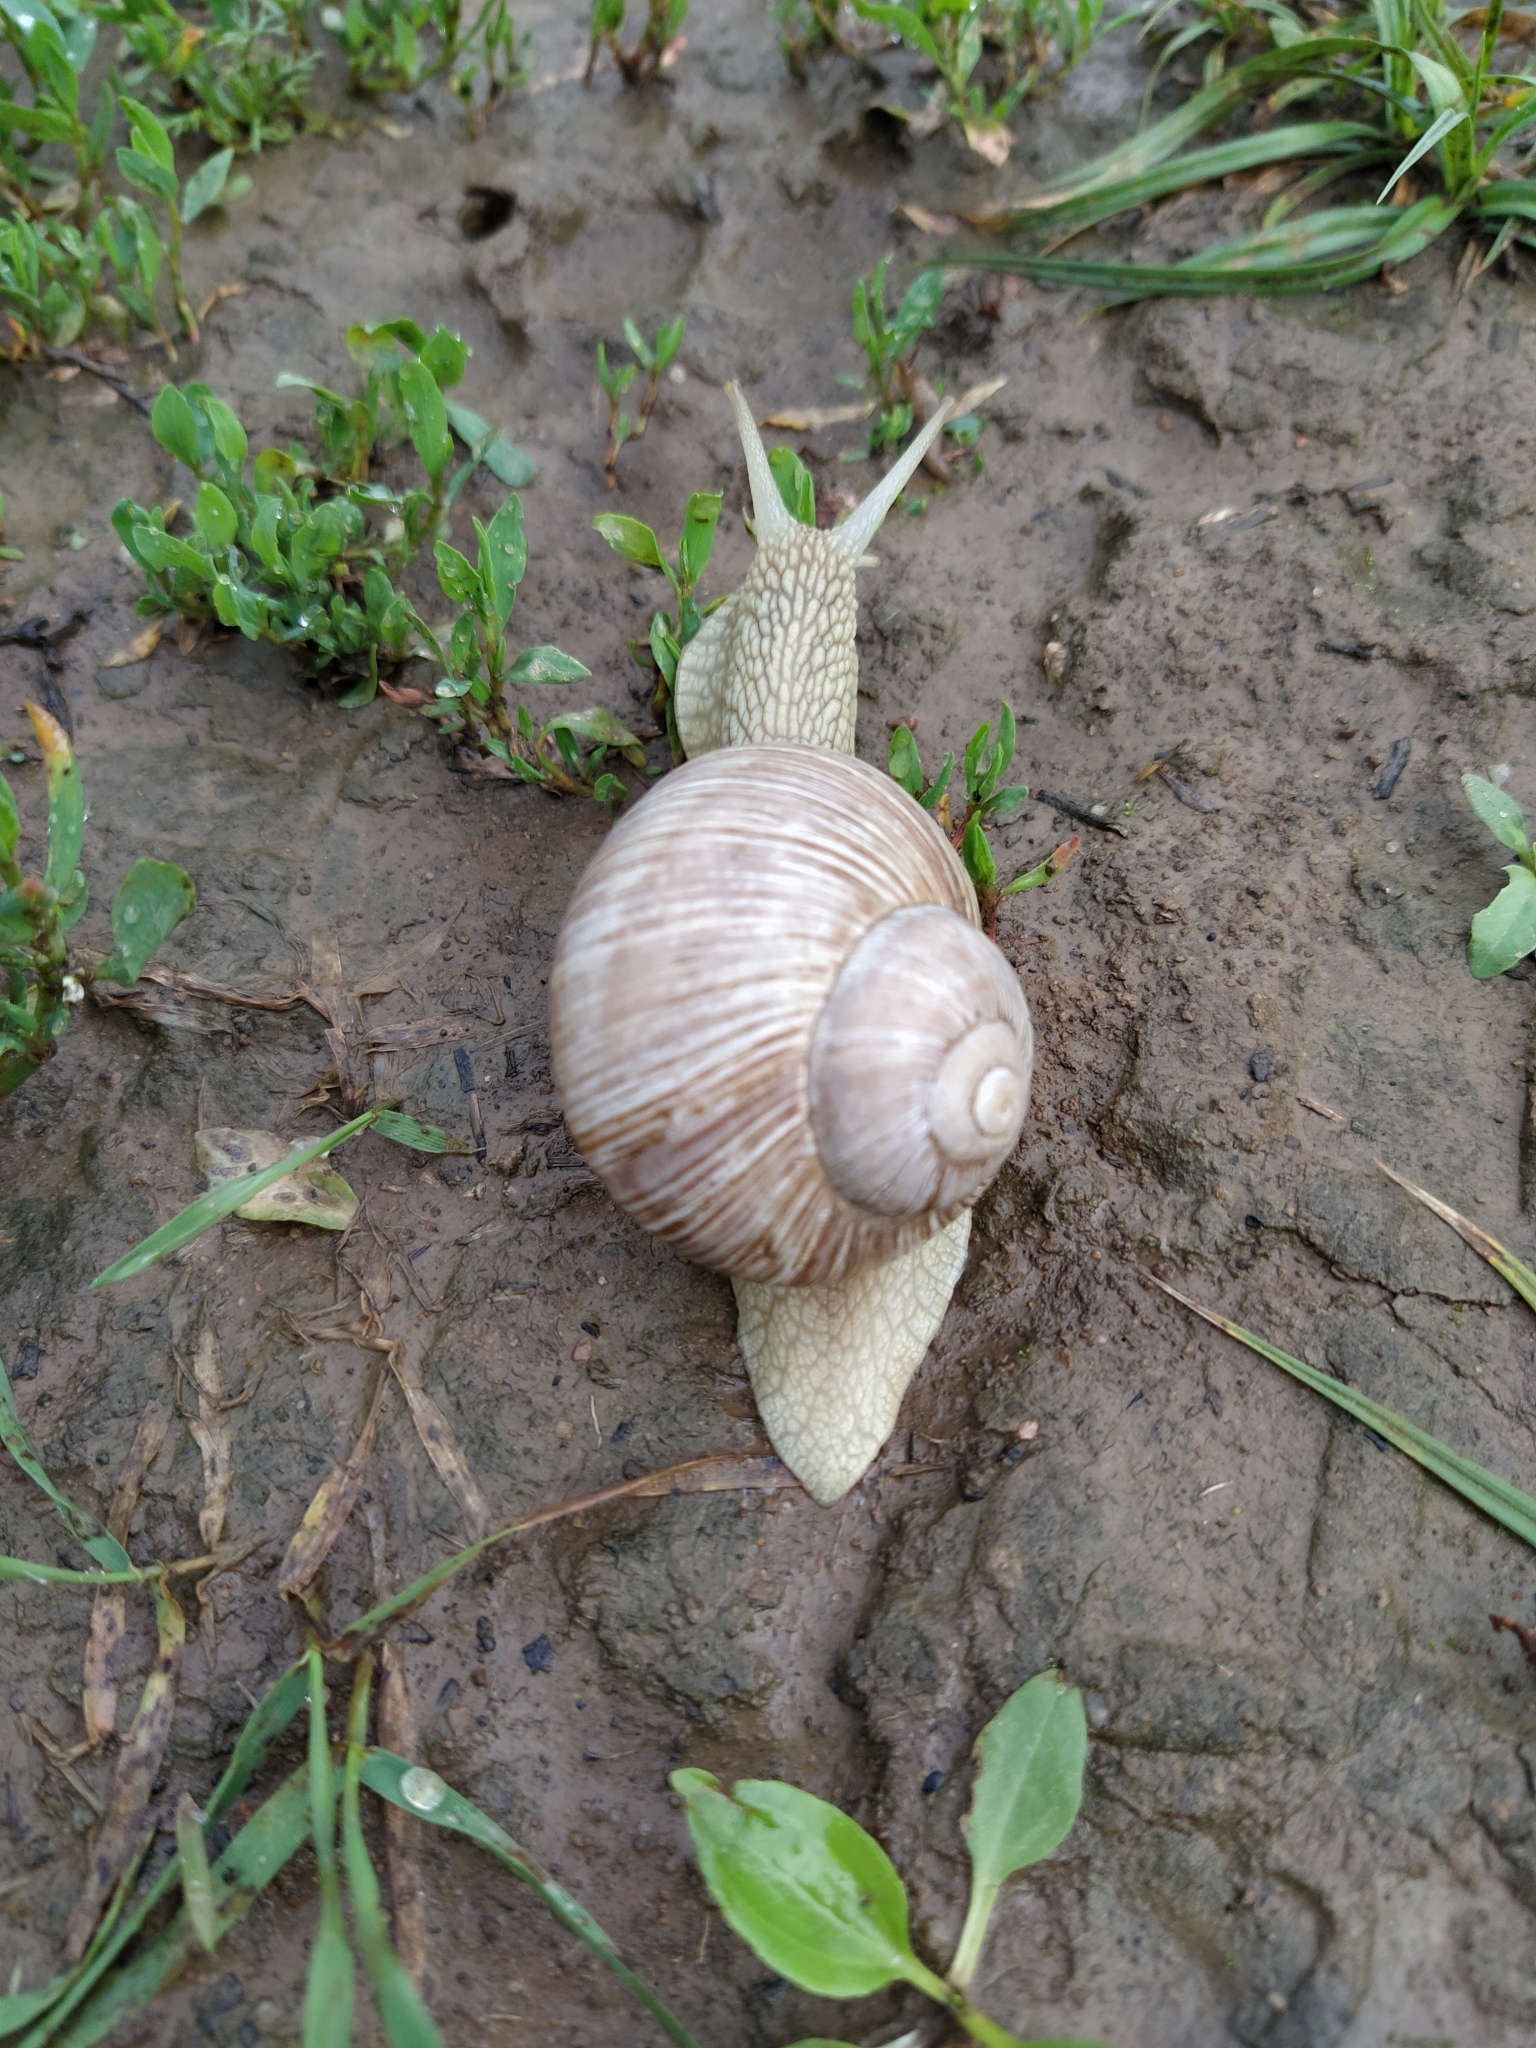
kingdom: Animalia
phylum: Mollusca
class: Gastropoda
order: Stylommatophora
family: Helicidae
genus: Helix
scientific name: Helix pomatia
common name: Roman snail
